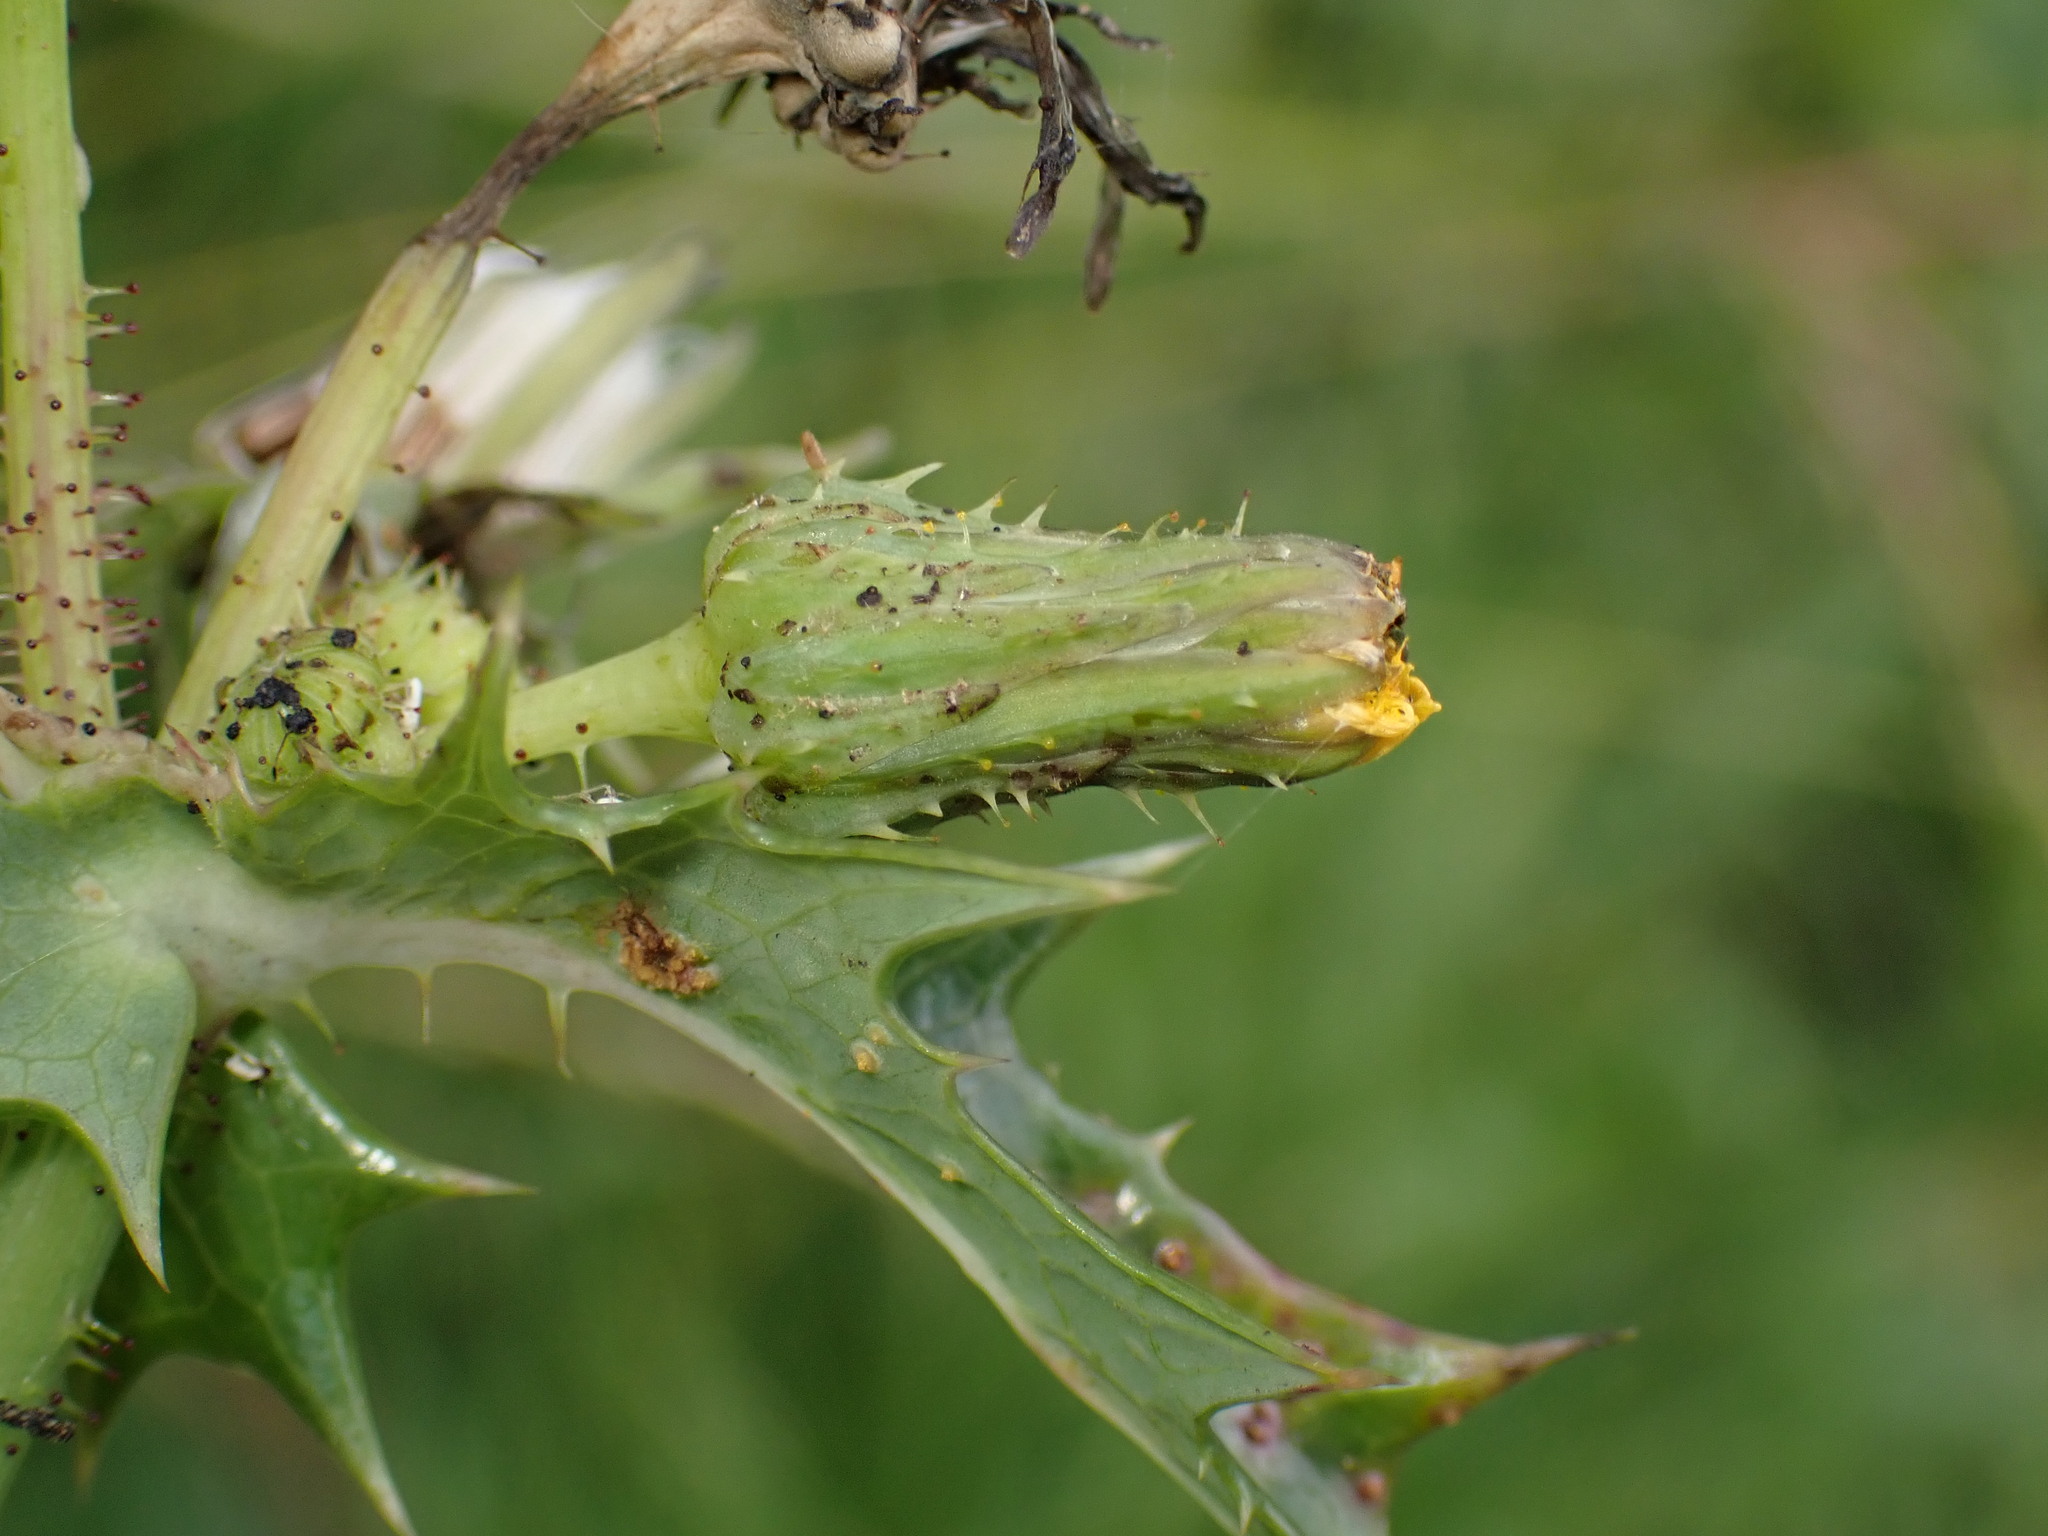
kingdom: Fungi
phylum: Basidiomycota
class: Pucciniomycetes
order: Pucciniales
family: Pucciniaceae
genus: Peristemma
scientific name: Peristemma pseudosphaeria
